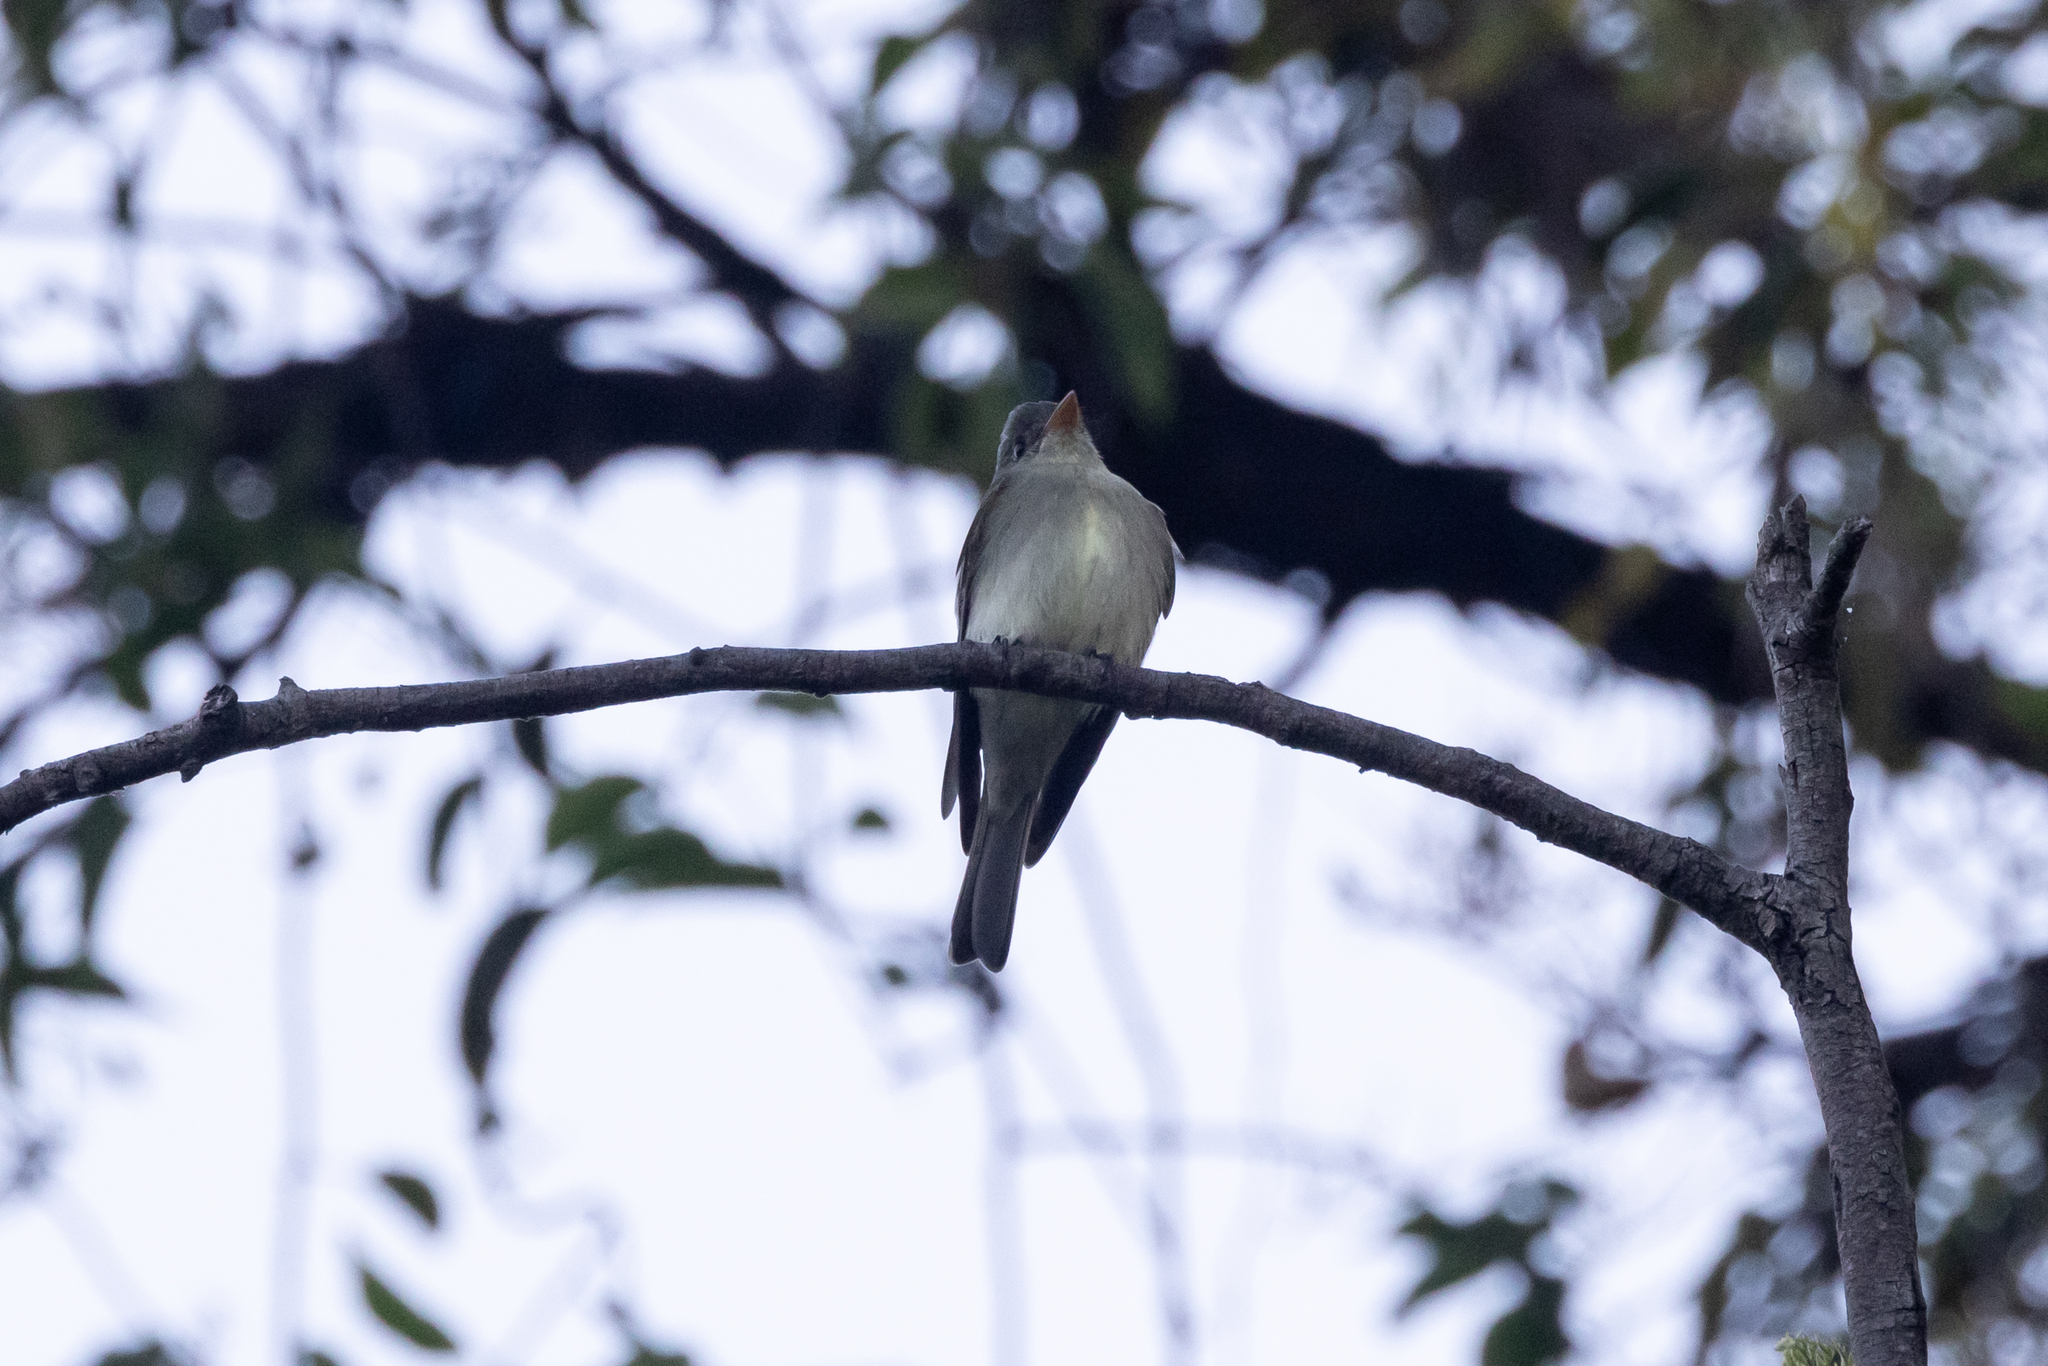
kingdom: Animalia
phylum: Chordata
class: Aves
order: Passeriformes
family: Tyrannidae
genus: Contopus
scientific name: Contopus cinereus
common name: Tropical pewee
